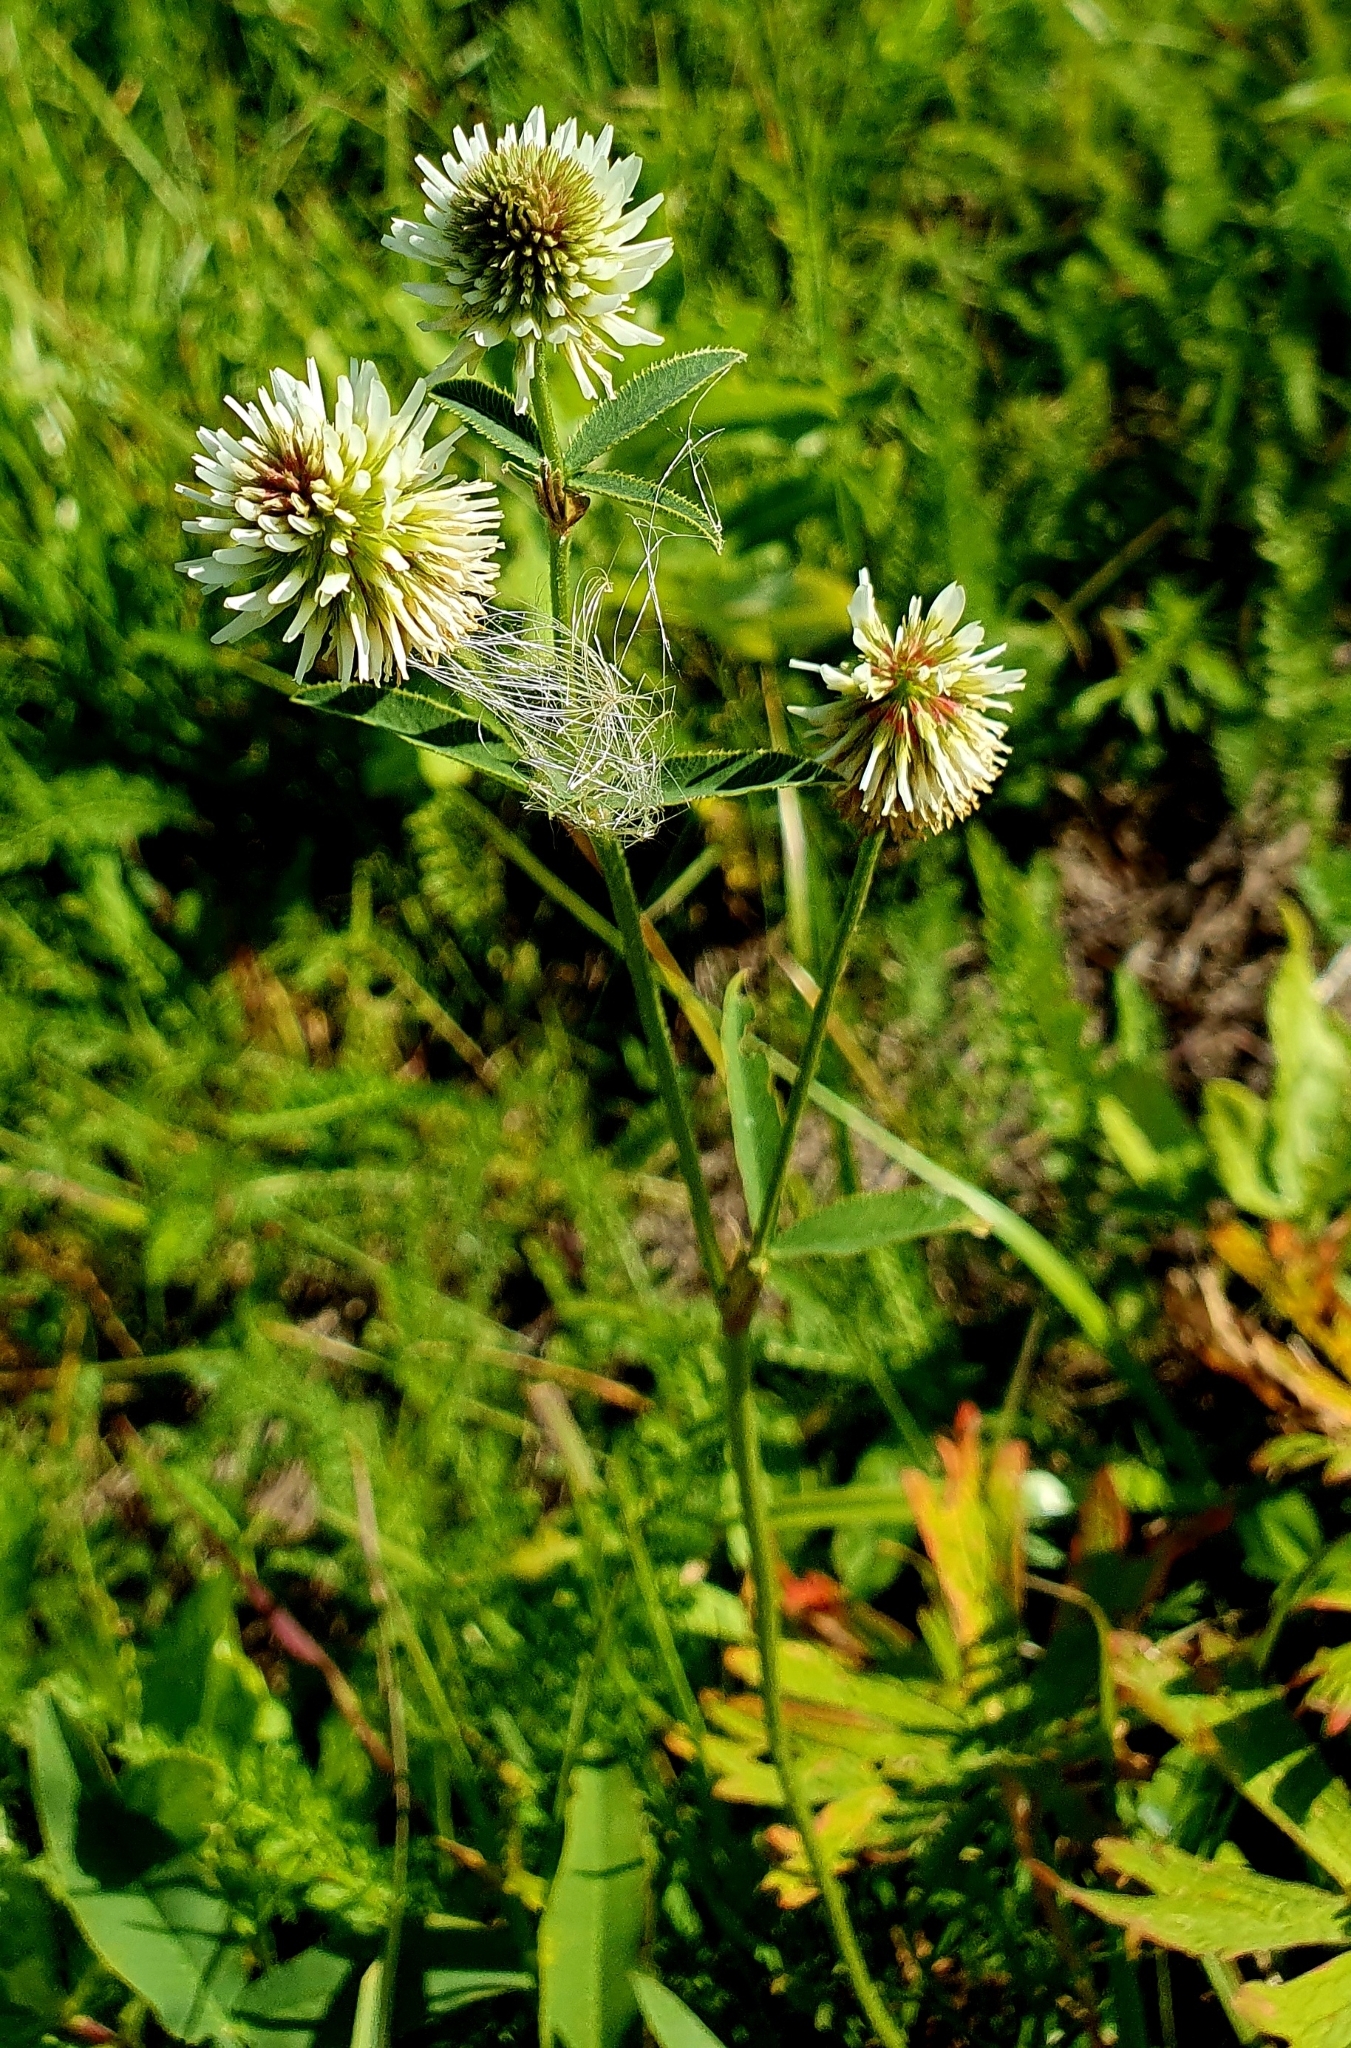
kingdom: Plantae
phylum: Tracheophyta
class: Magnoliopsida
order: Fabales
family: Fabaceae
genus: Trifolium
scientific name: Trifolium montanum
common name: Mountain clover
